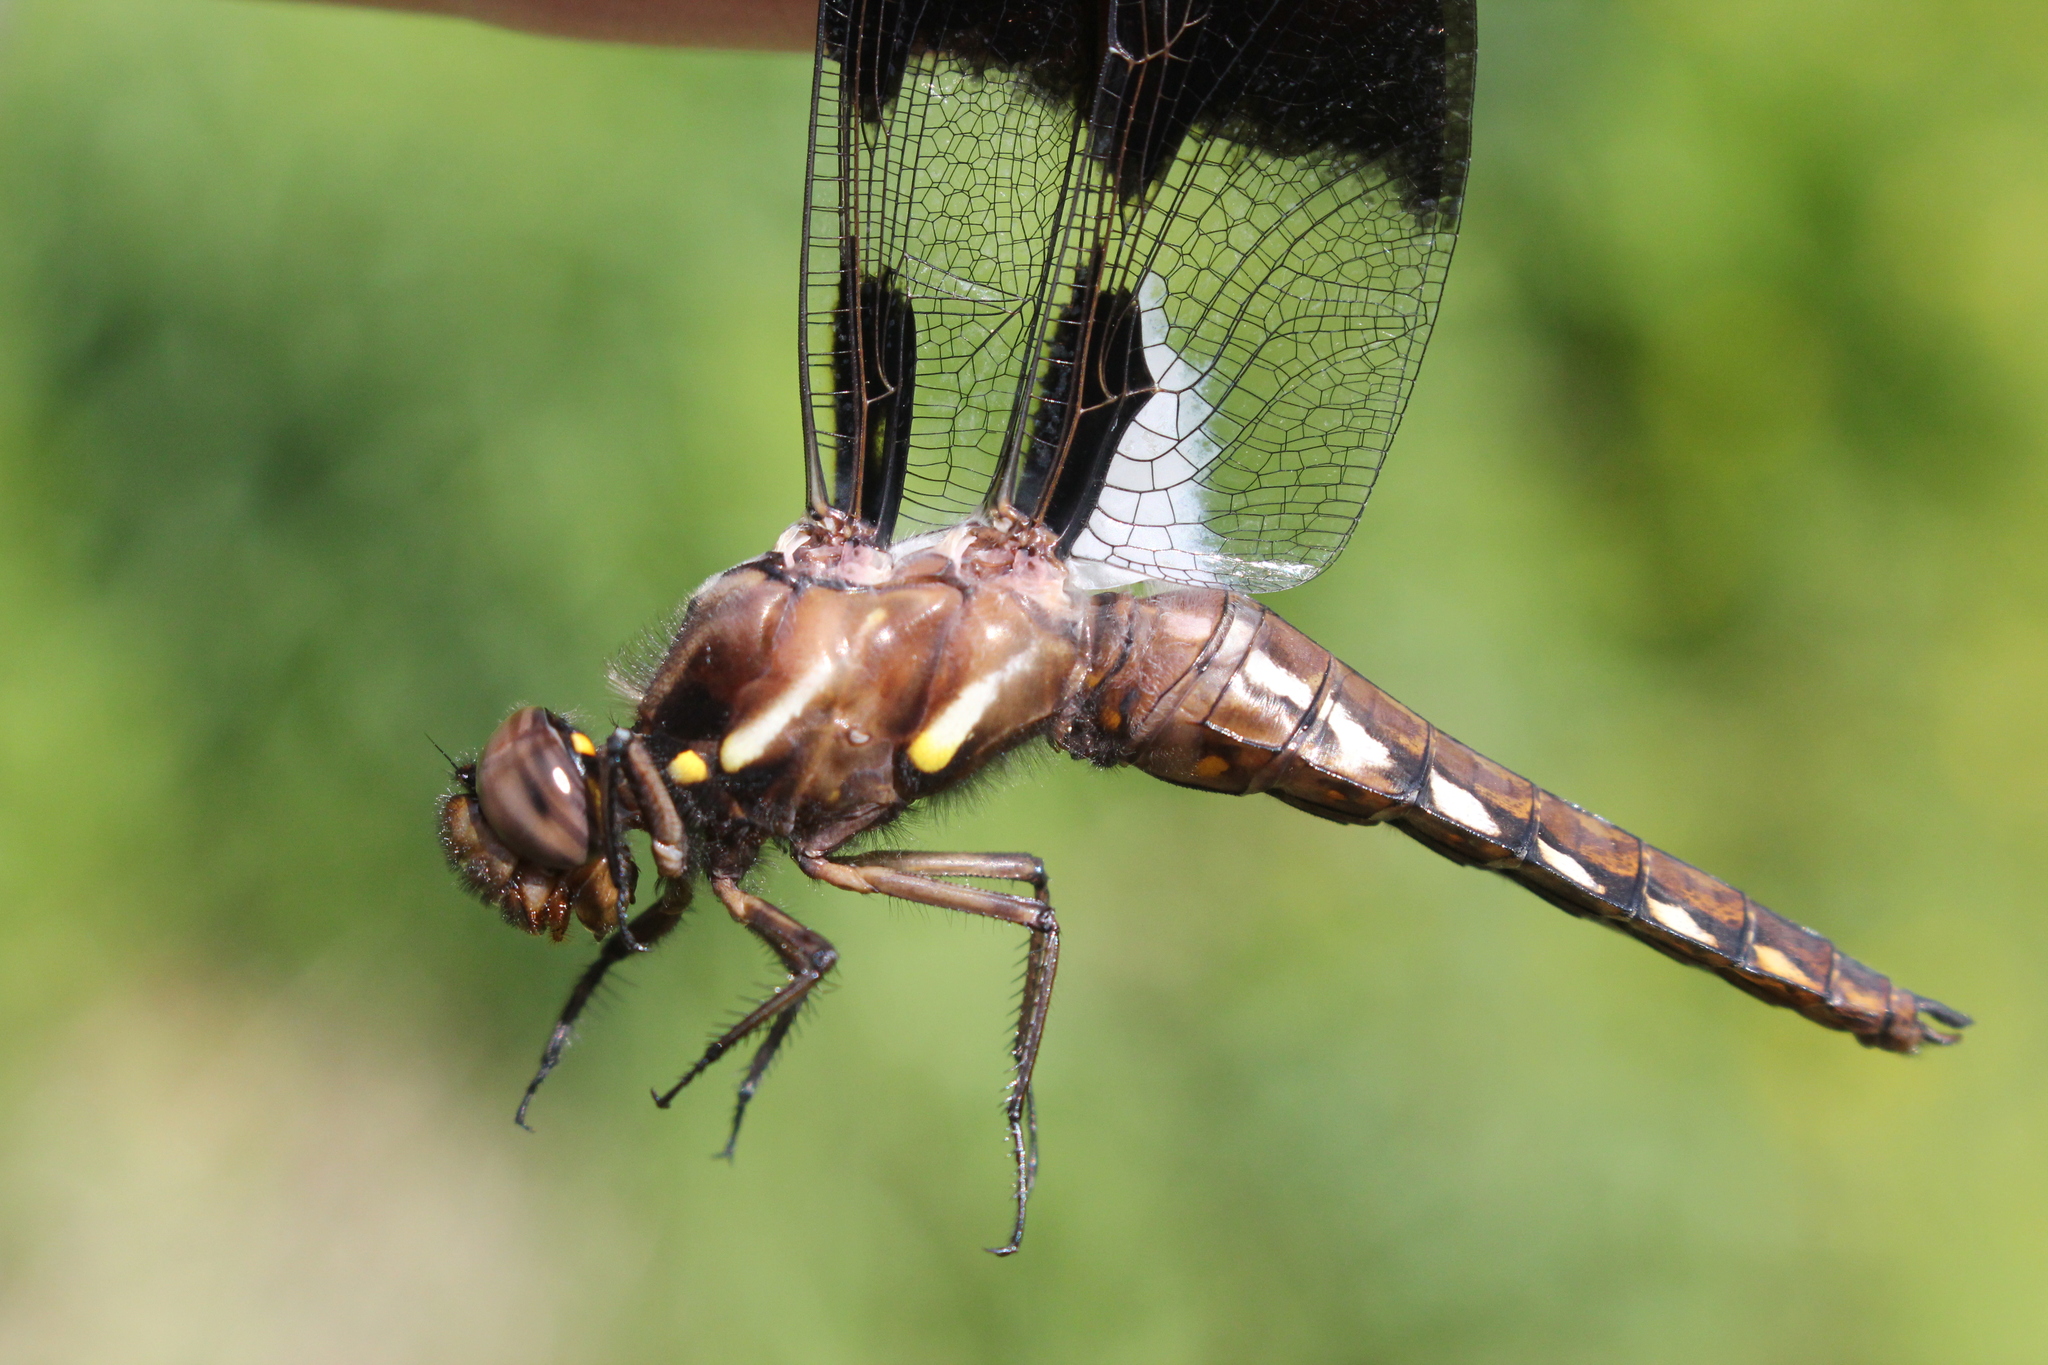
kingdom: Animalia
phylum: Arthropoda
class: Insecta
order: Odonata
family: Libellulidae
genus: Plathemis
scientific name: Plathemis lydia
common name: Common whitetail
